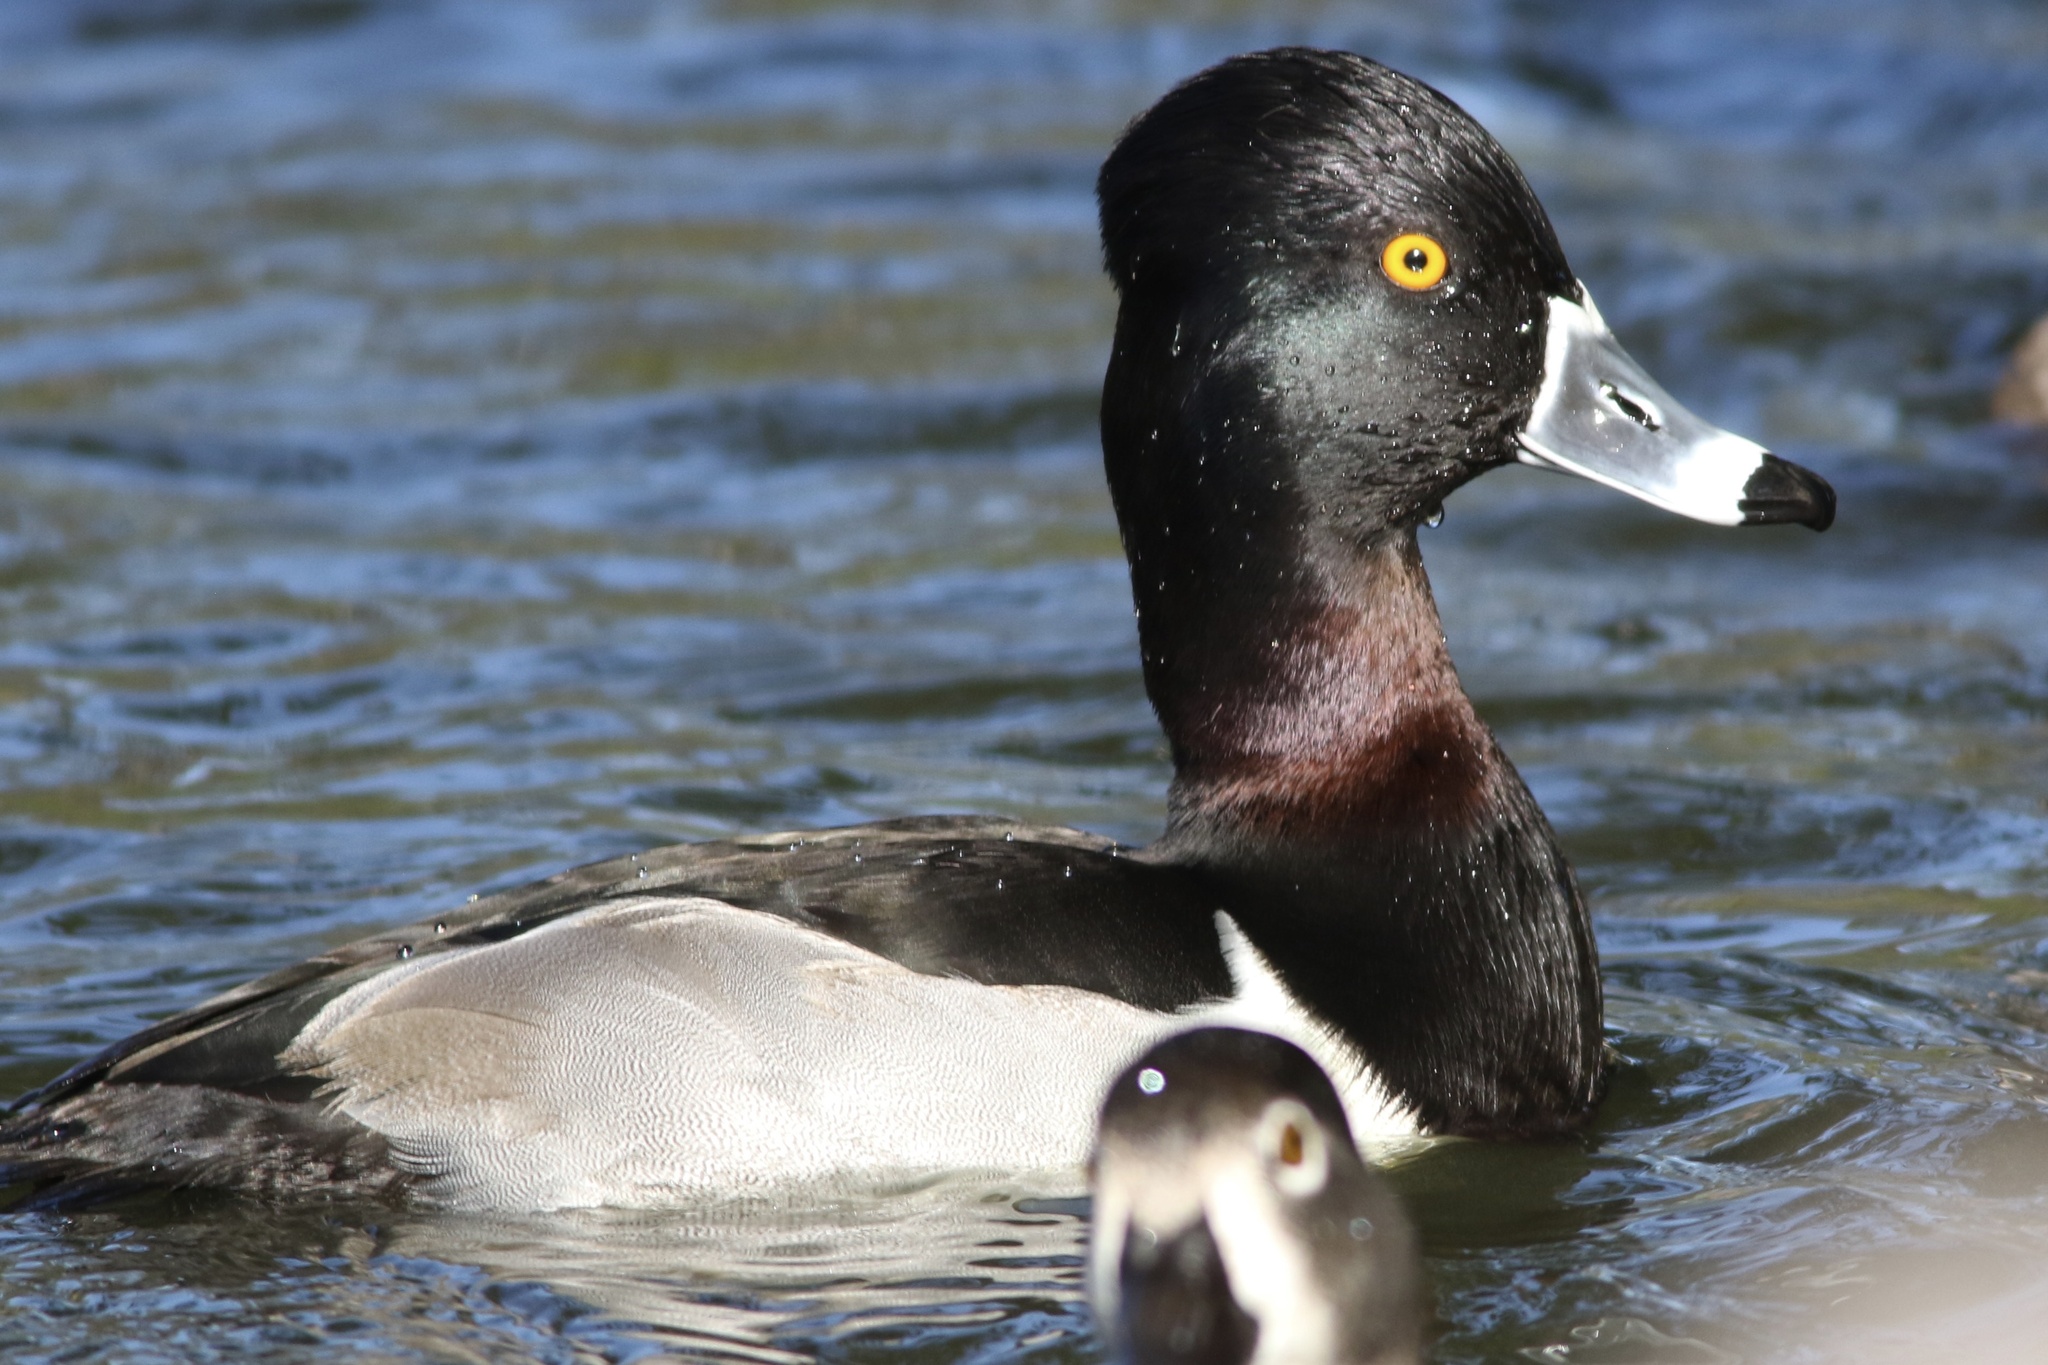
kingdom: Animalia
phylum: Chordata
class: Aves
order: Anseriformes
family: Anatidae
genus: Aythya
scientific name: Aythya collaris
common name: Ring-necked duck
